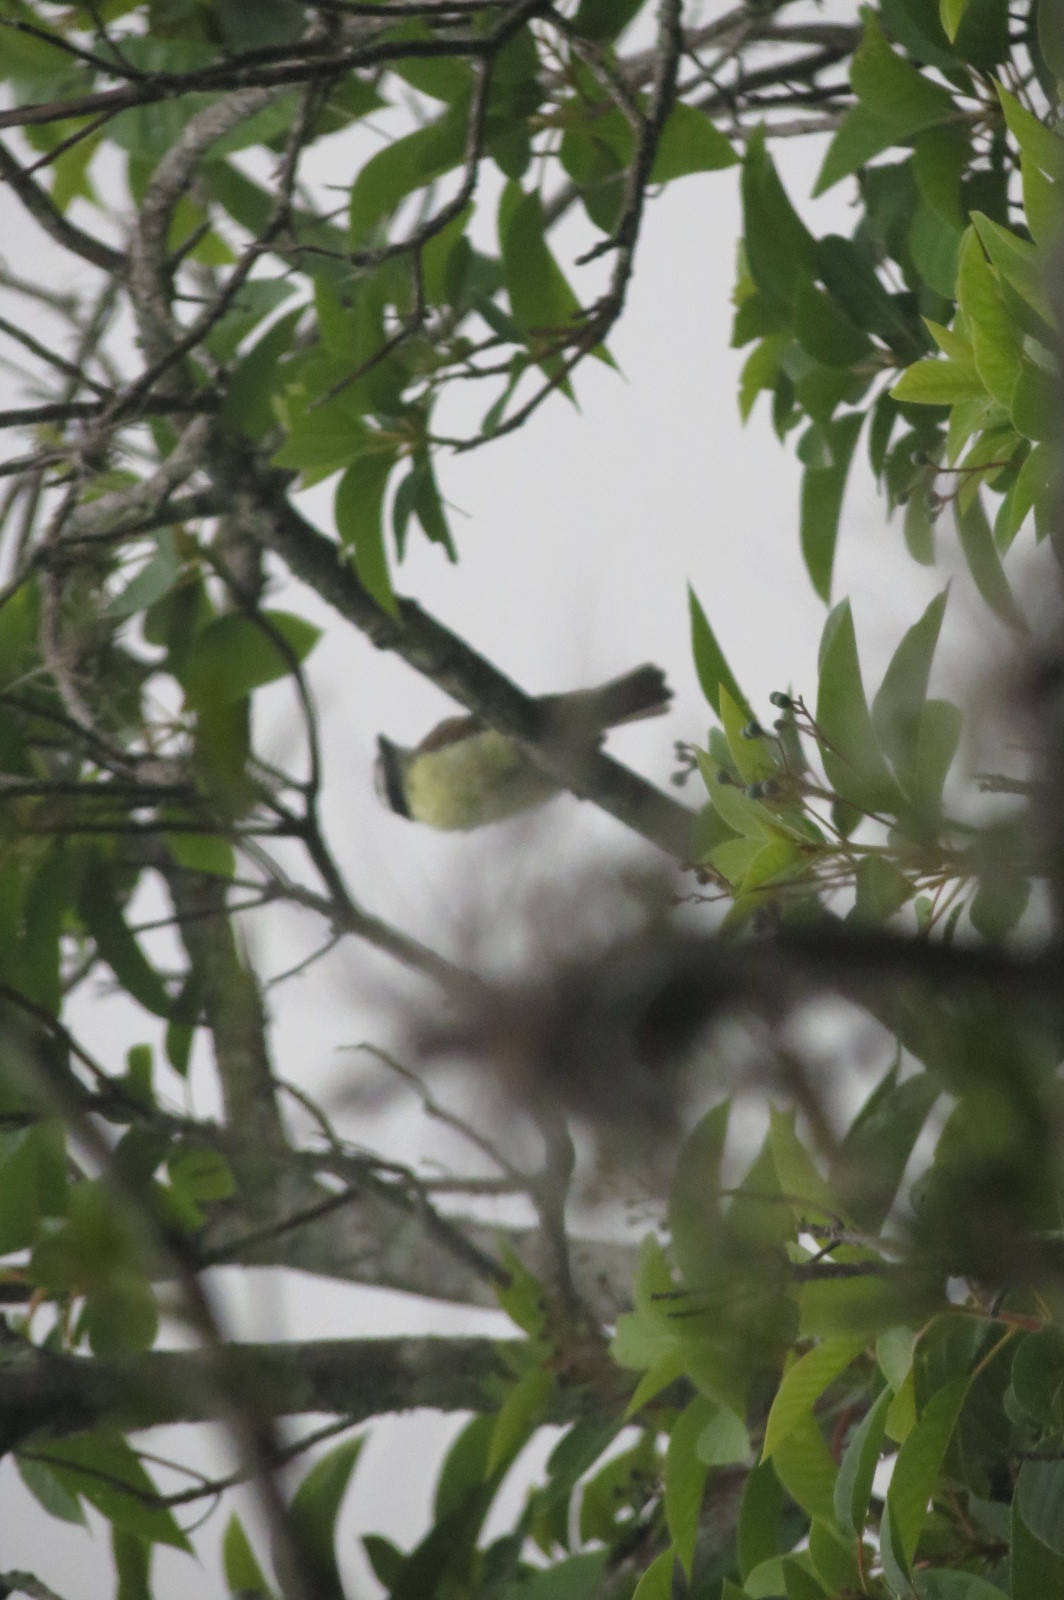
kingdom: Animalia
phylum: Chordata
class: Aves
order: Passeriformes
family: Tyrannidae
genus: Myiozetetes
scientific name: Myiozetetes cayanensis
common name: Rusty-margined flycatcher
